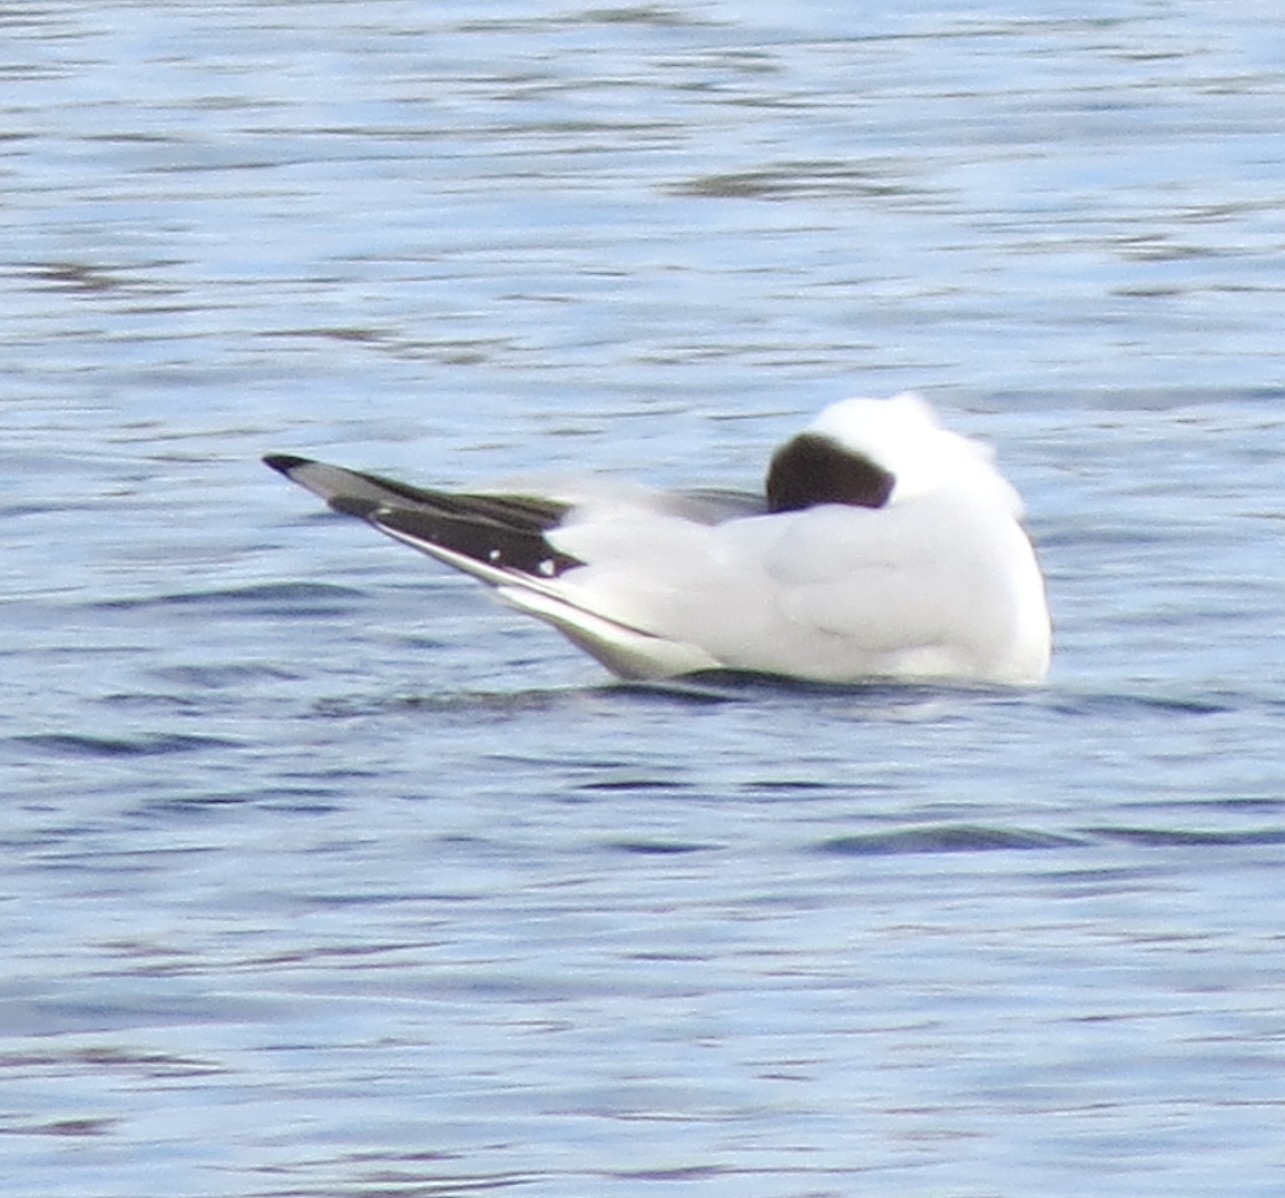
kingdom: Animalia
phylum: Chordata
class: Aves
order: Charadriiformes
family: Laridae
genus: Chroicocephalus
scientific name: Chroicocephalus ridibundus
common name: Black-headed gull
